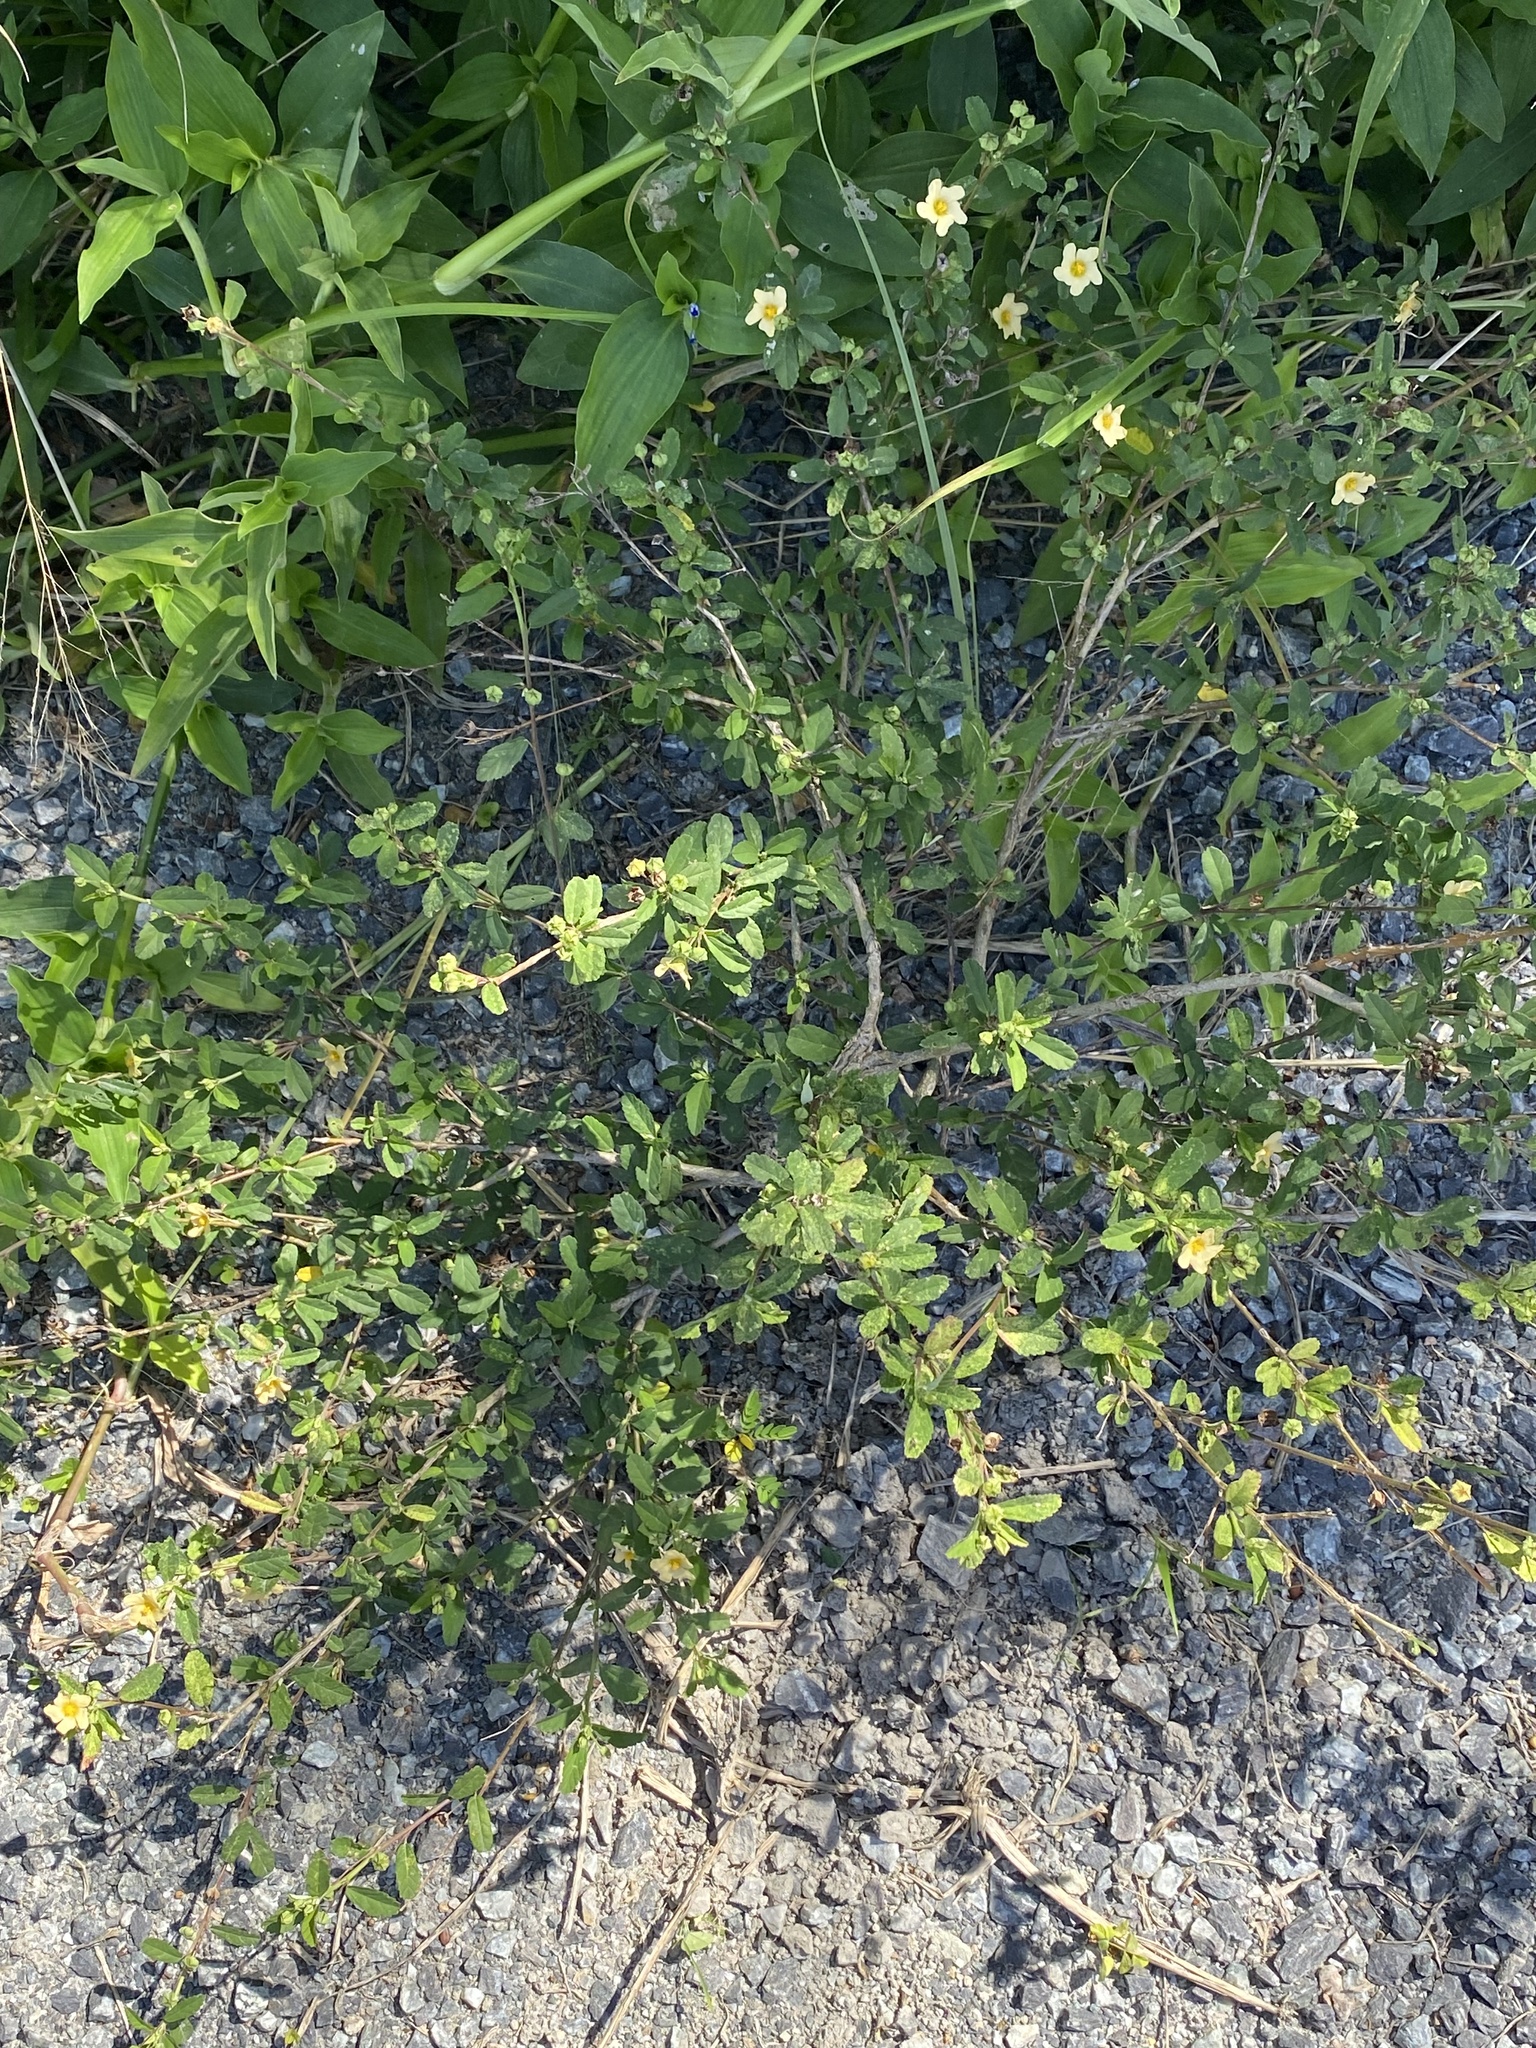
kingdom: Plantae
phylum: Tracheophyta
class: Magnoliopsida
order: Malvales
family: Malvaceae
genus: Sida
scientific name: Sida rhombifolia
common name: Queensland-hemp
